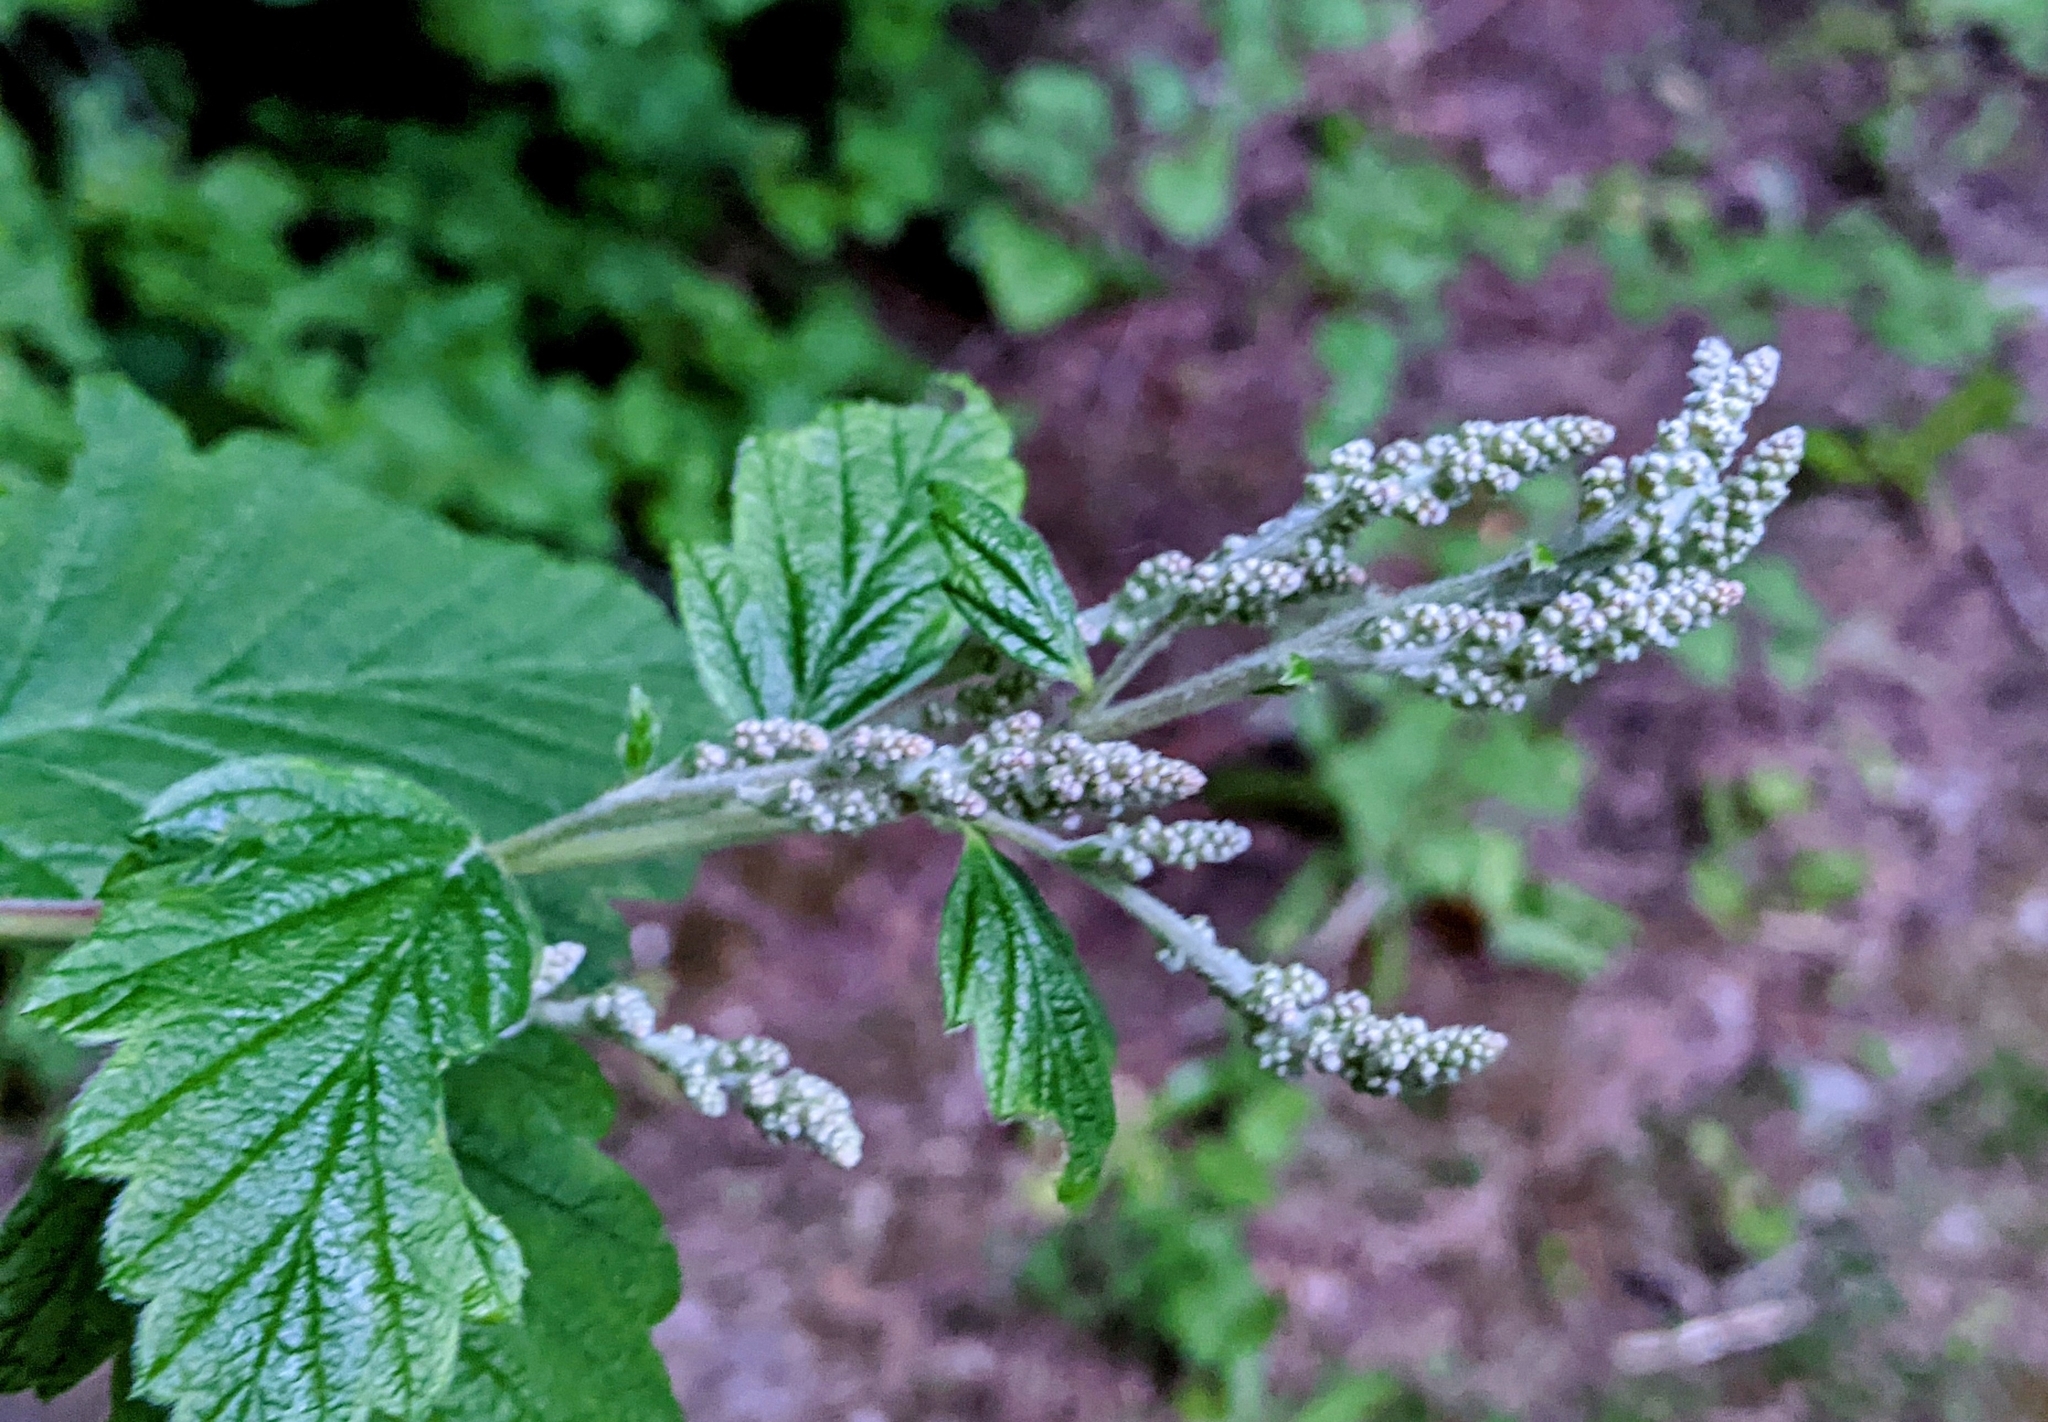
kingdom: Plantae
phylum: Tracheophyta
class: Magnoliopsida
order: Rosales
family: Rosaceae
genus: Holodiscus
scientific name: Holodiscus discolor
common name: Oceanspray
